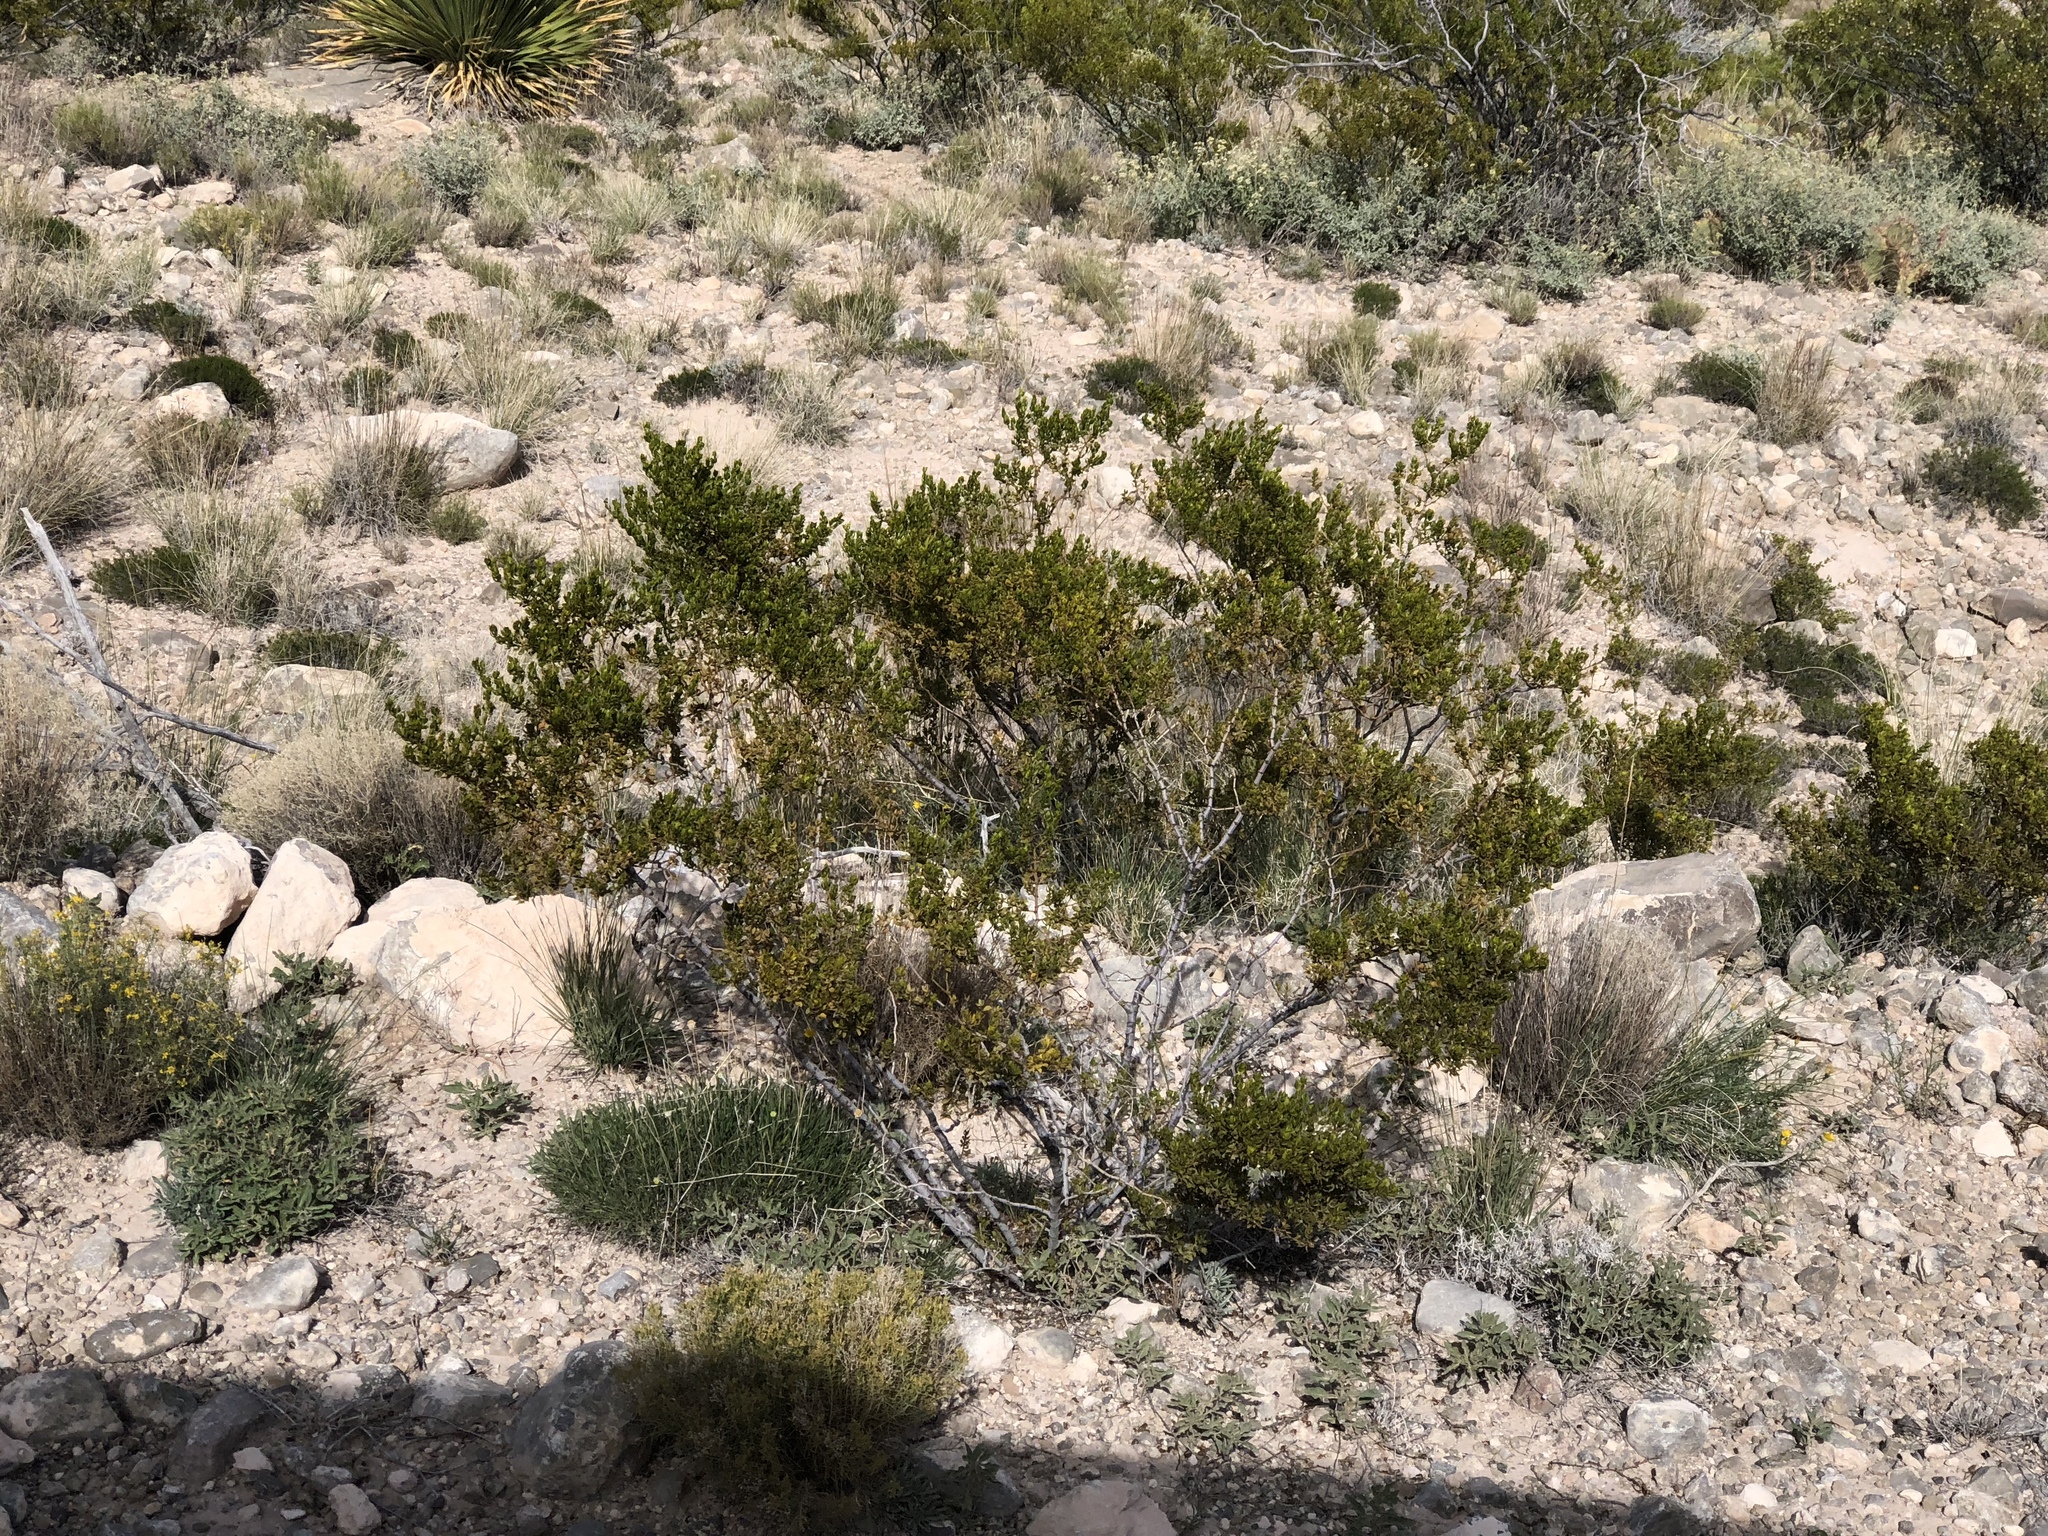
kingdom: Plantae
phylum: Tracheophyta
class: Magnoliopsida
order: Zygophyllales
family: Zygophyllaceae
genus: Larrea
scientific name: Larrea tridentata
